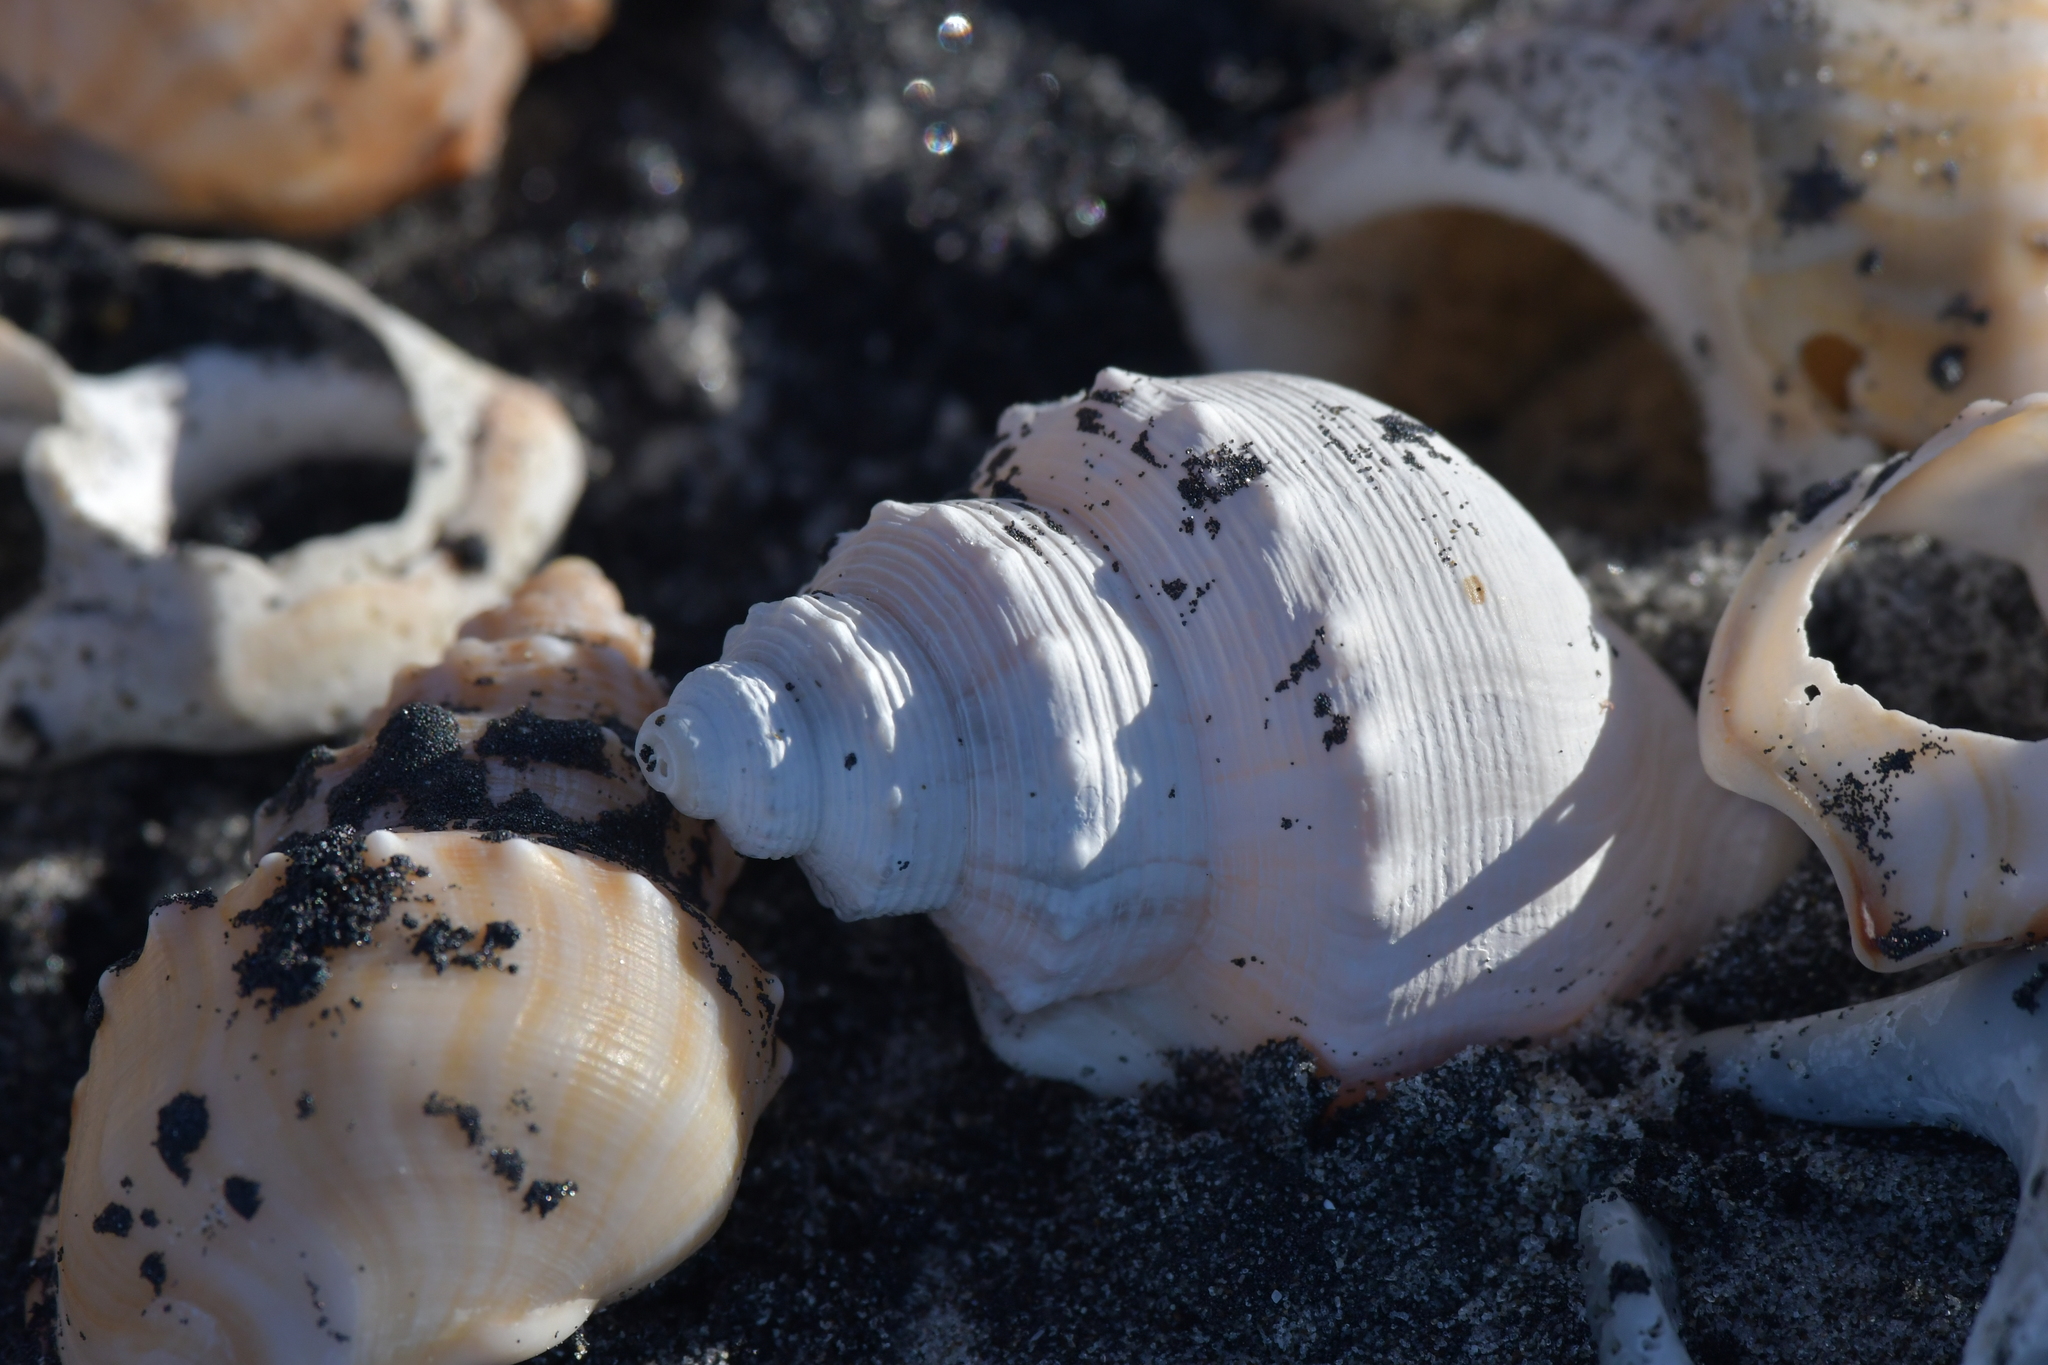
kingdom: Animalia
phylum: Mollusca
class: Gastropoda
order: Littorinimorpha
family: Struthiolariidae
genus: Struthiolaria
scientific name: Struthiolaria papulosa
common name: Large ostrich foot
